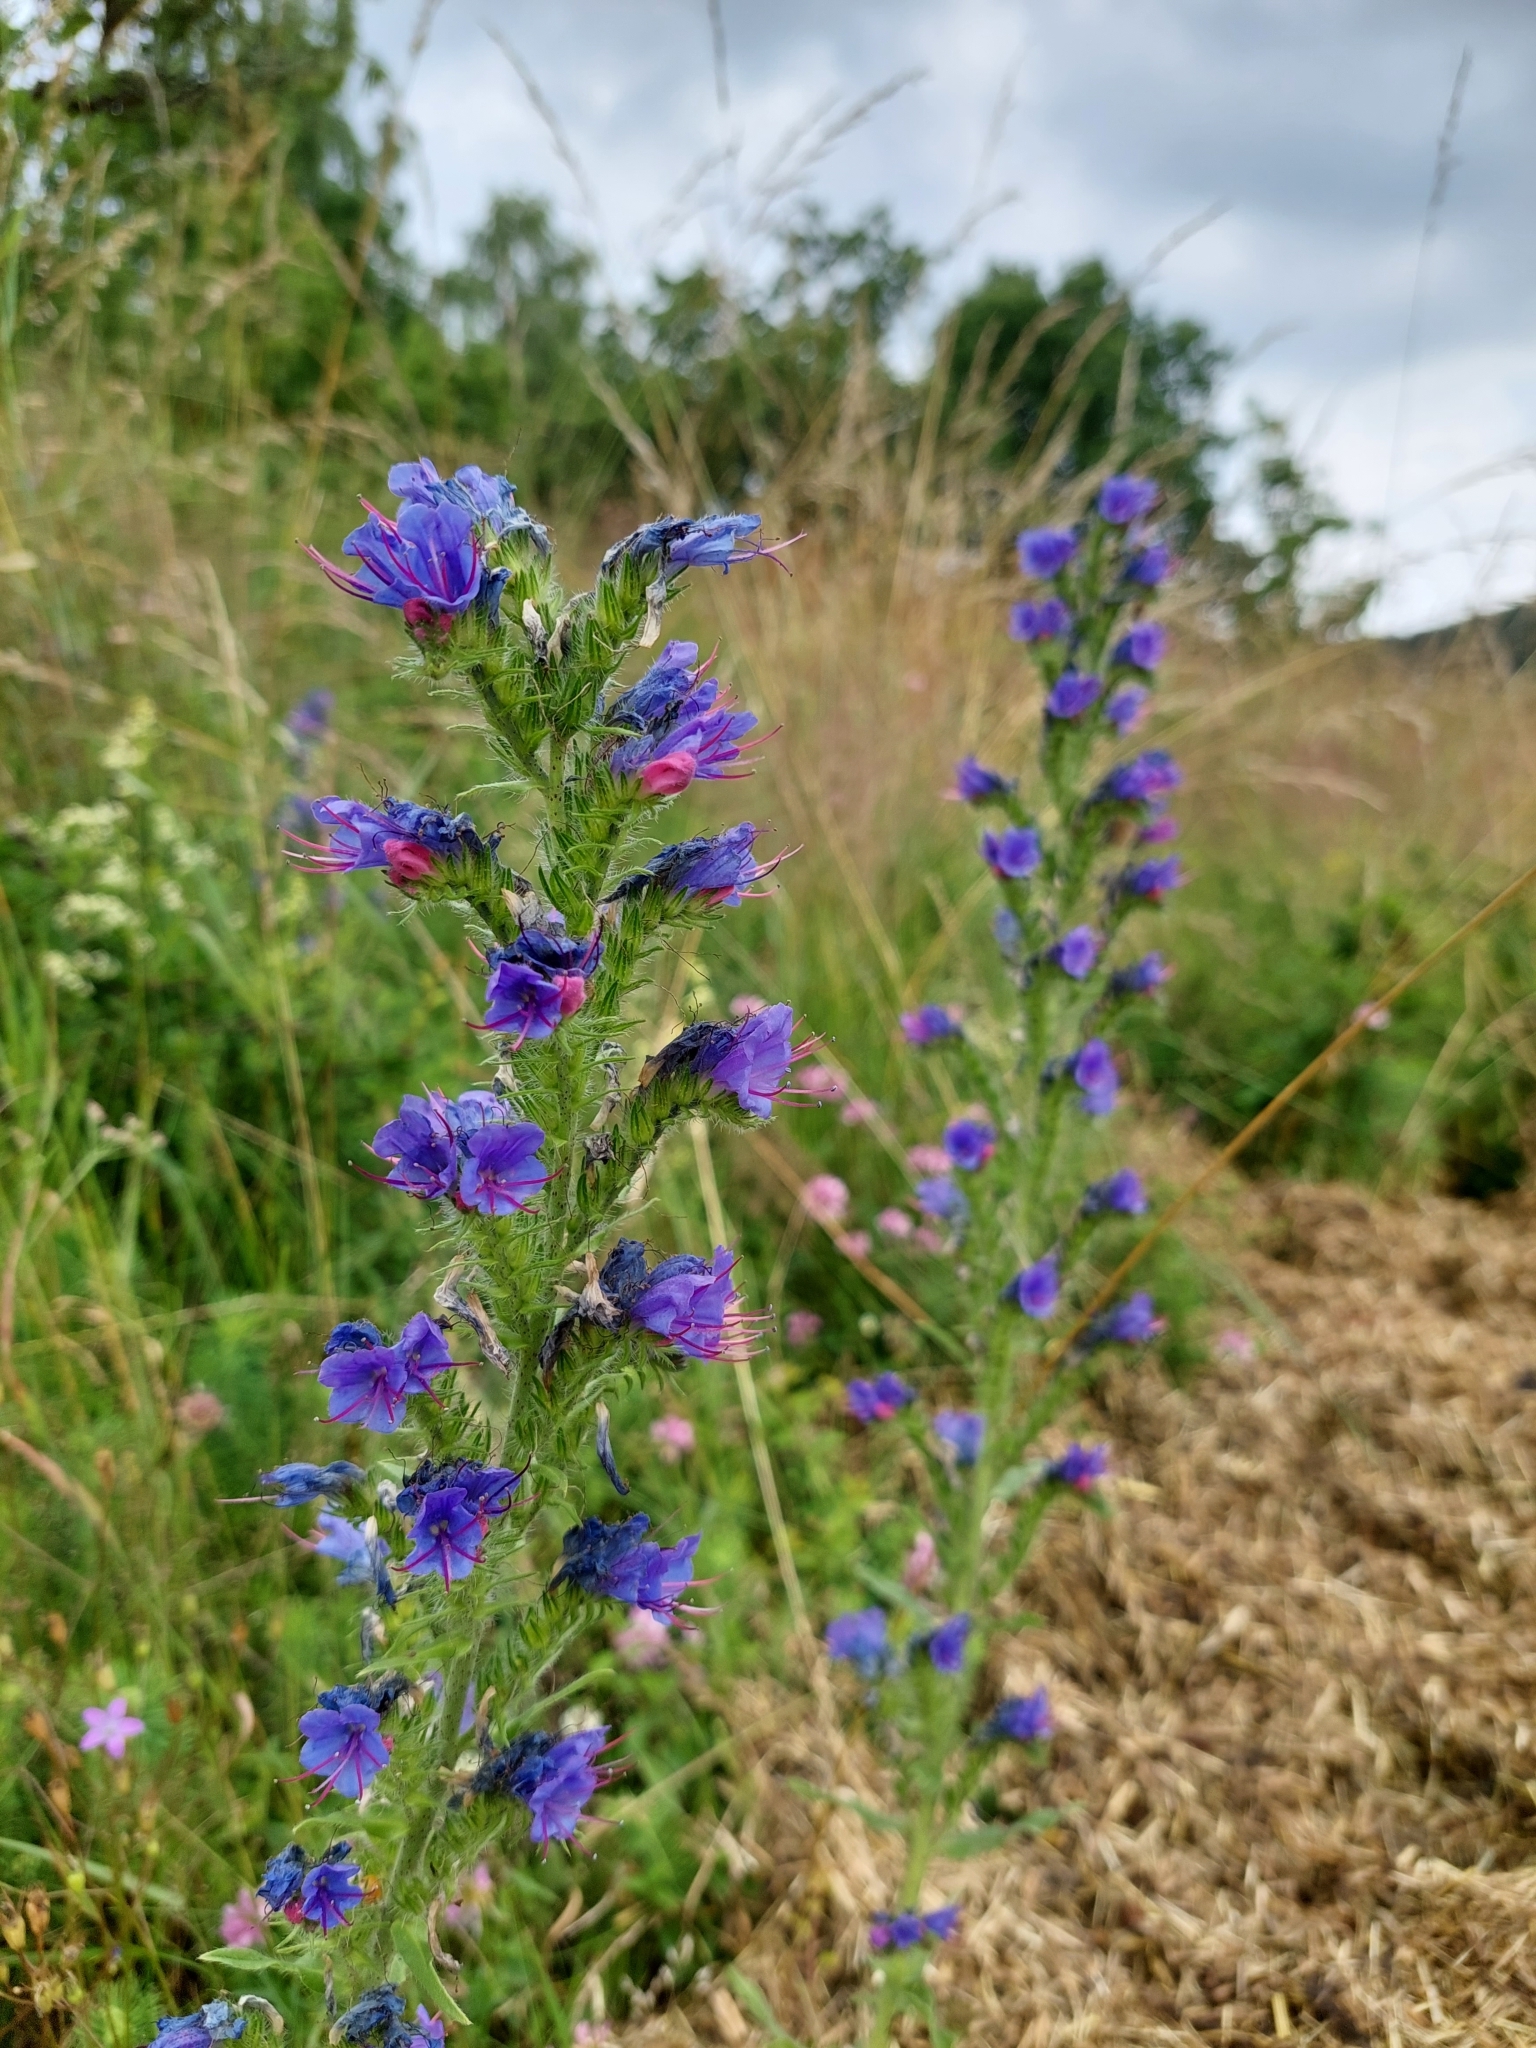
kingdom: Plantae
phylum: Tracheophyta
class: Magnoliopsida
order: Boraginales
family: Boraginaceae
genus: Echium
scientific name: Echium vulgare
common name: Common viper's bugloss
